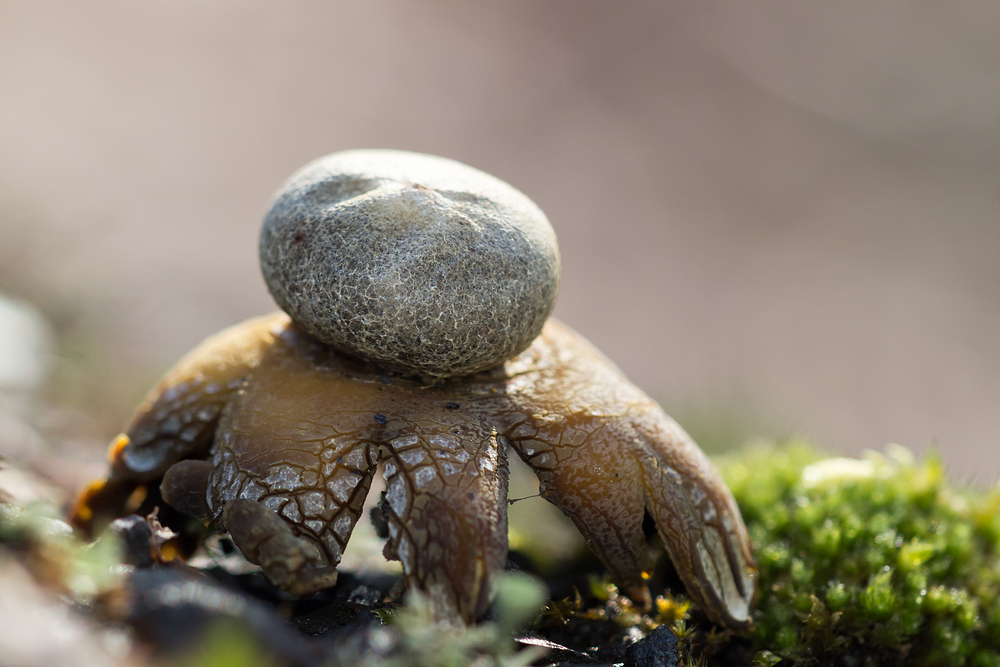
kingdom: Fungi
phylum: Basidiomycota
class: Agaricomycetes
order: Boletales
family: Diplocystidiaceae
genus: Astraeus
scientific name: Astraeus hygrometricus
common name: Barometer earthstar
